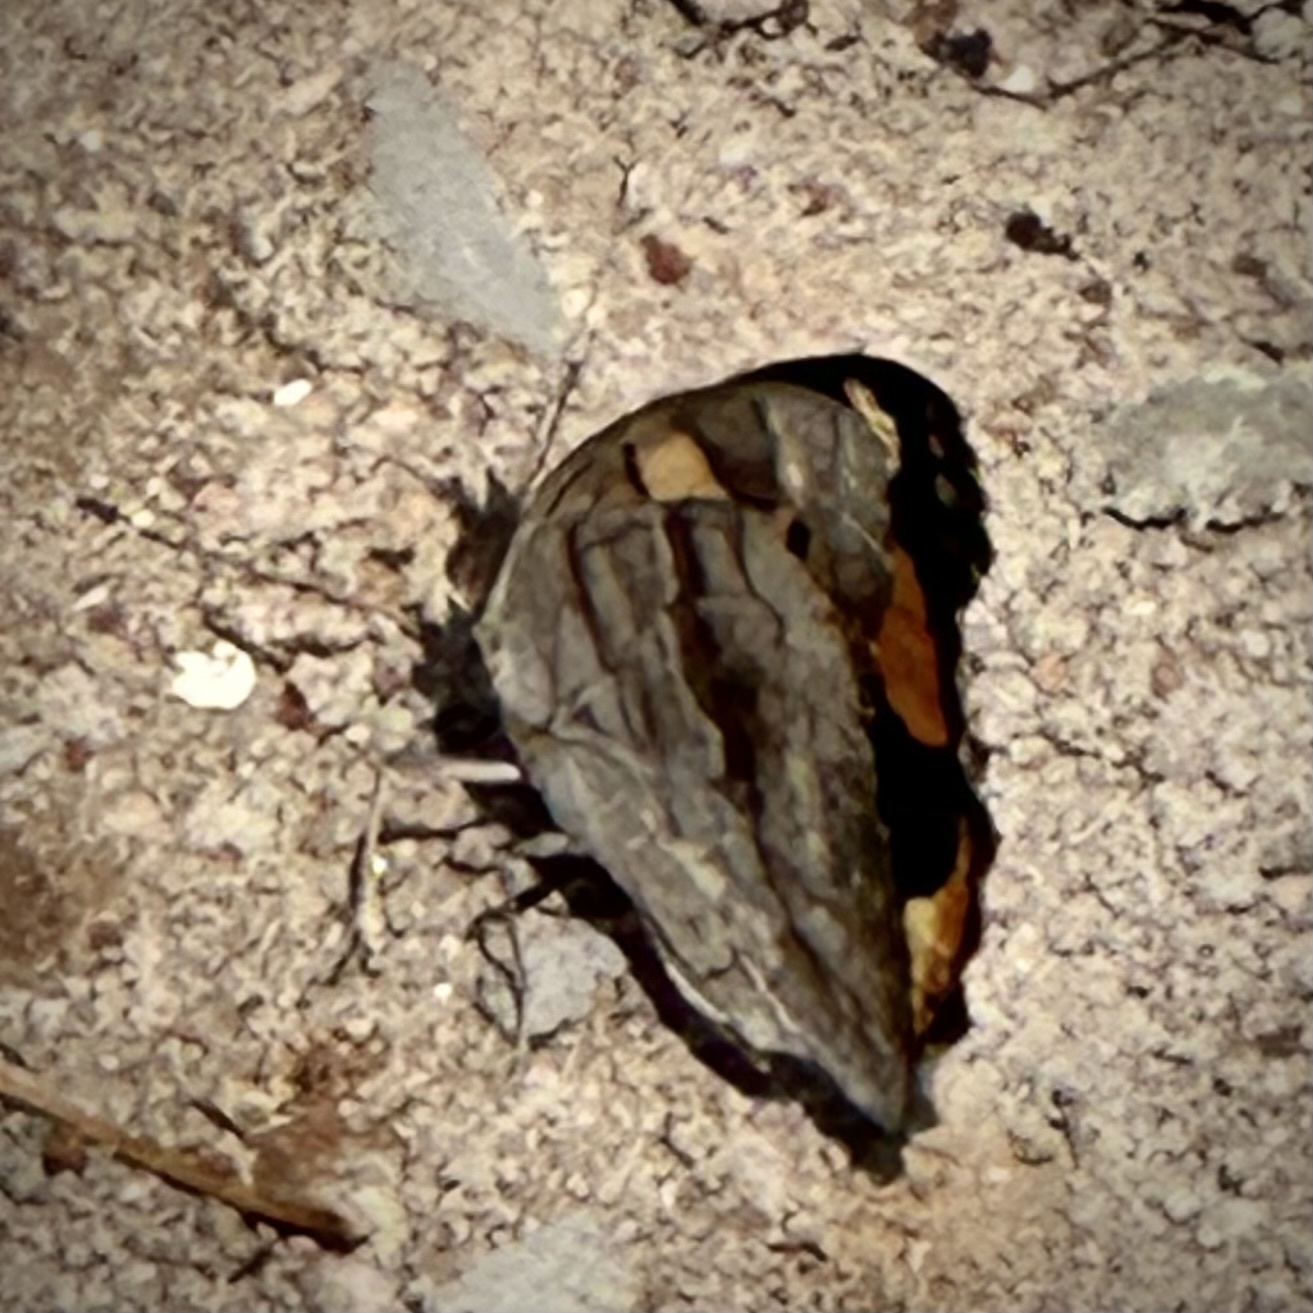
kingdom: Animalia
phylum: Arthropoda
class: Insecta
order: Lepidoptera
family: Nymphalidae
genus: Junonia
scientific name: Junonia hierta
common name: Yellow pansy
